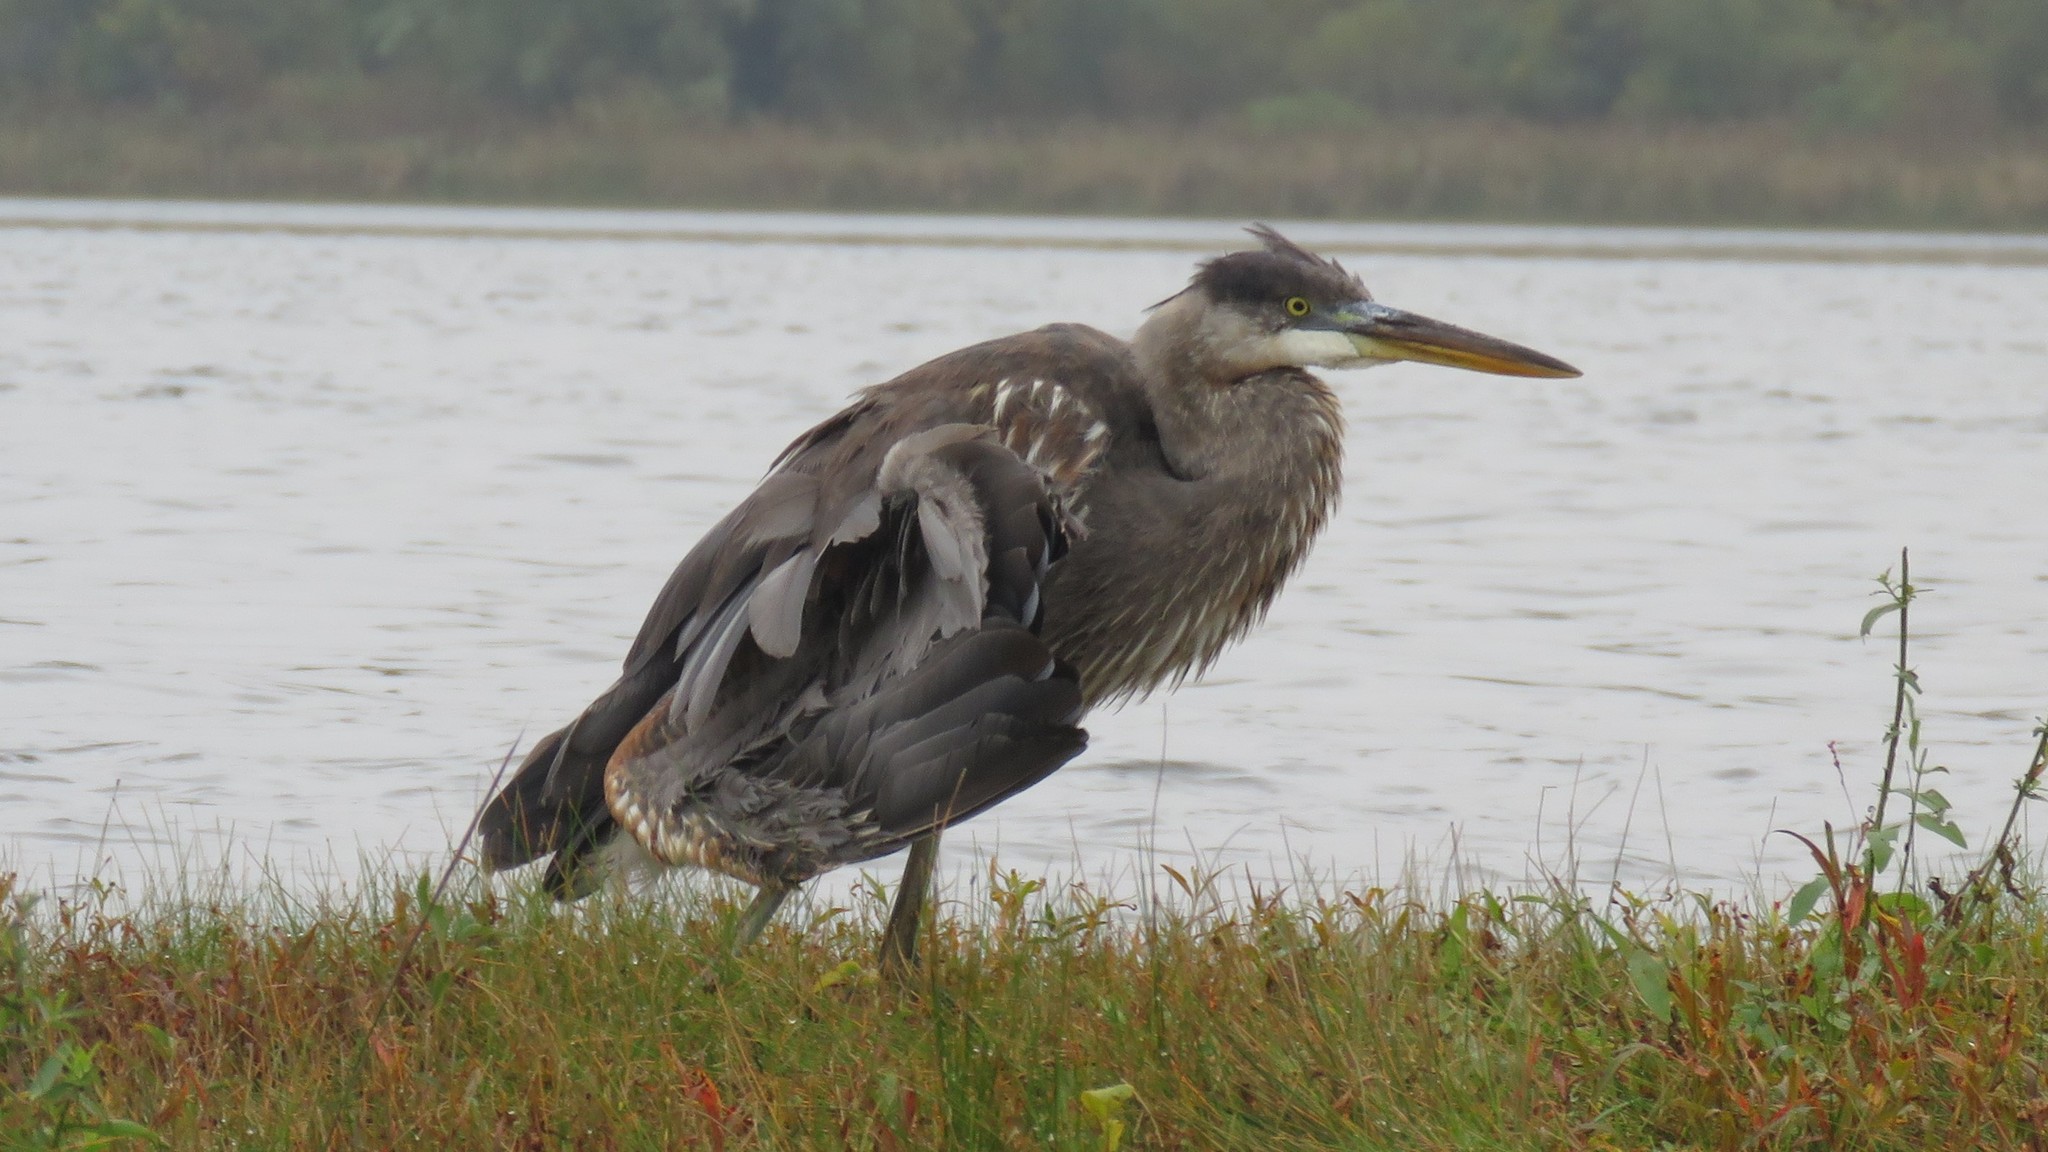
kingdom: Animalia
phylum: Chordata
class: Aves
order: Pelecaniformes
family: Ardeidae
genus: Ardea
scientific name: Ardea herodias
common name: Great blue heron
